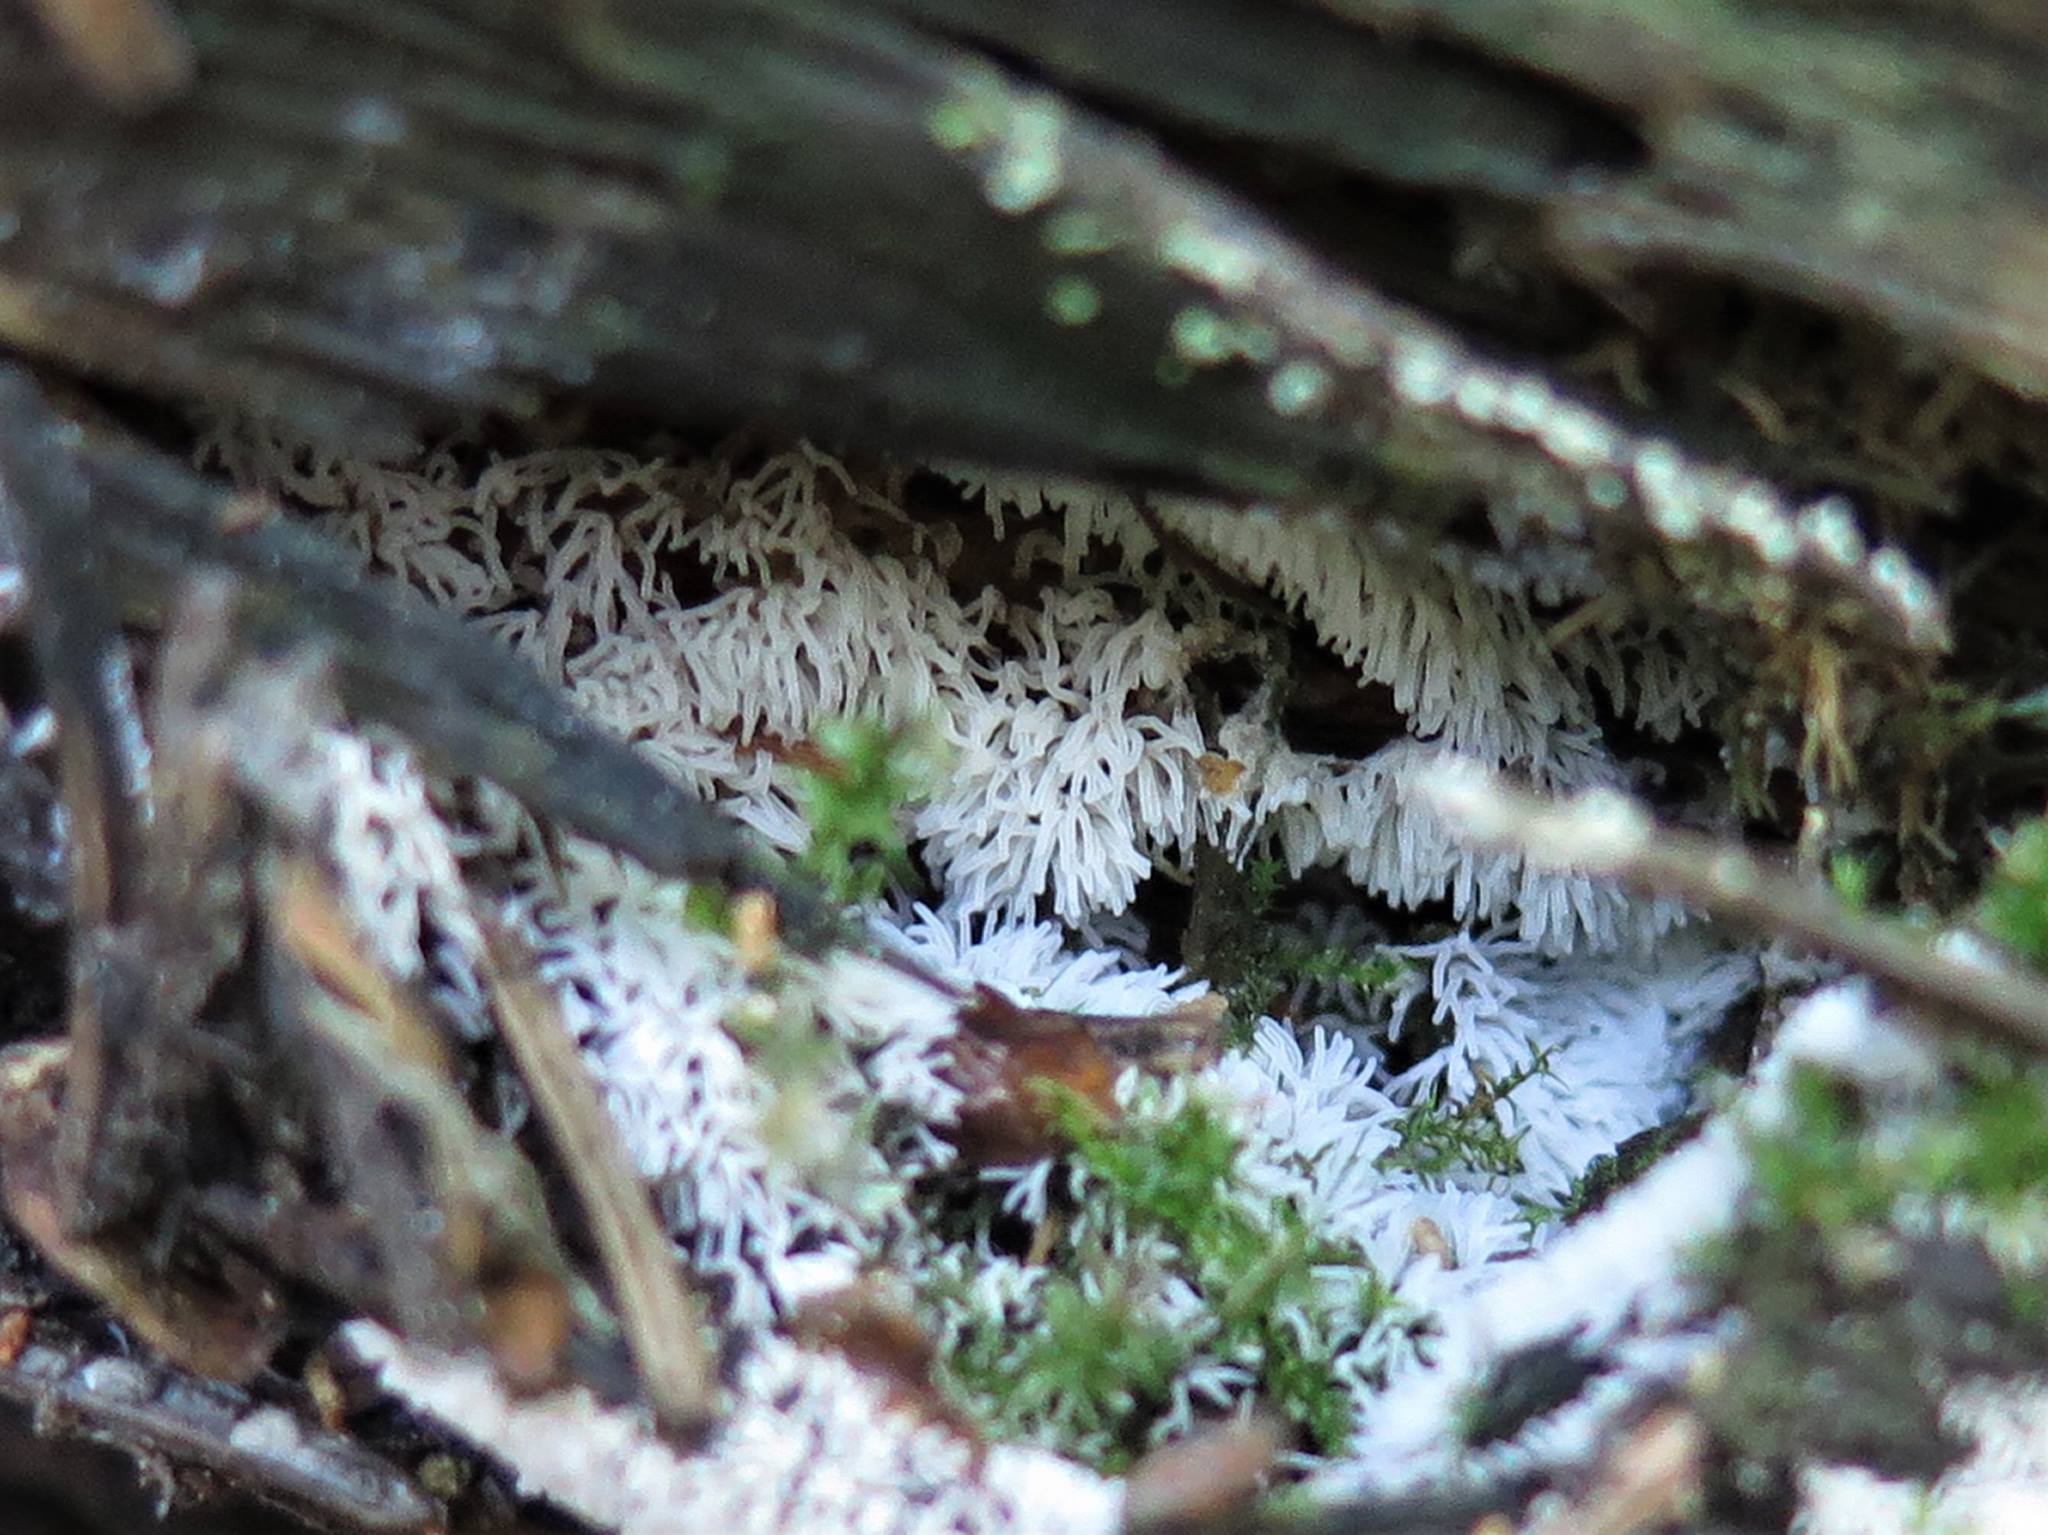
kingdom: Protozoa
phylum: Mycetozoa
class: Protosteliomycetes
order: Ceratiomyxales
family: Ceratiomyxaceae
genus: Ceratiomyxa
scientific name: Ceratiomyxa fruticulosa
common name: Honeycomb coral slime mold
